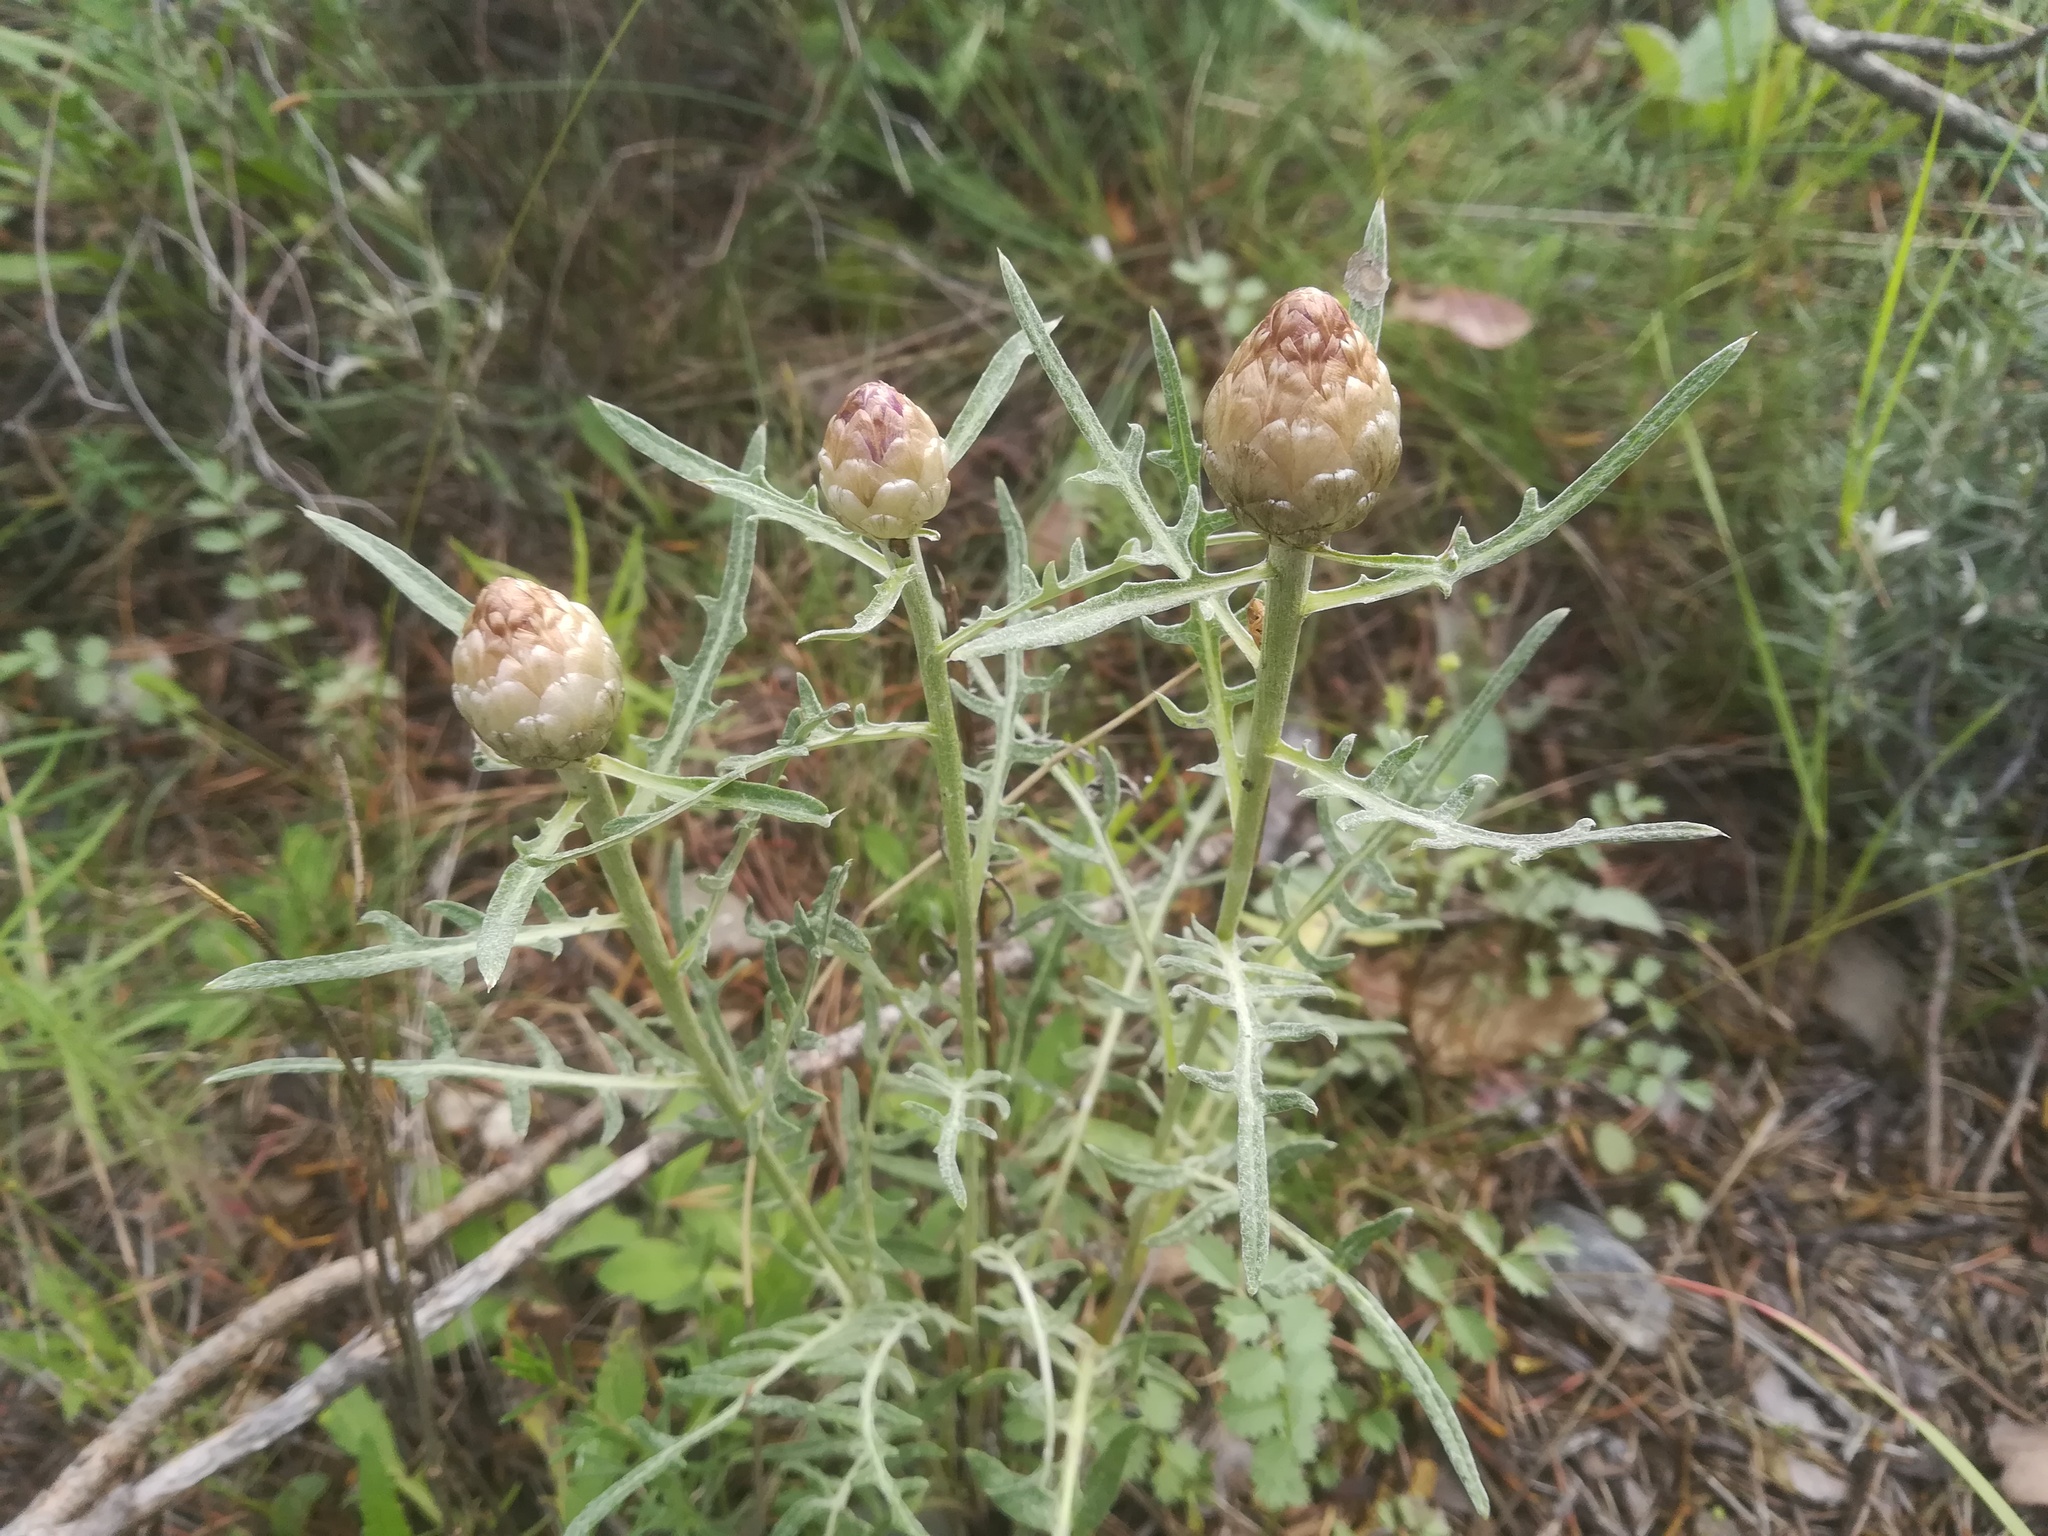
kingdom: Plantae
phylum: Tracheophyta
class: Magnoliopsida
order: Asterales
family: Asteraceae
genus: Leuzea
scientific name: Leuzea conifera
